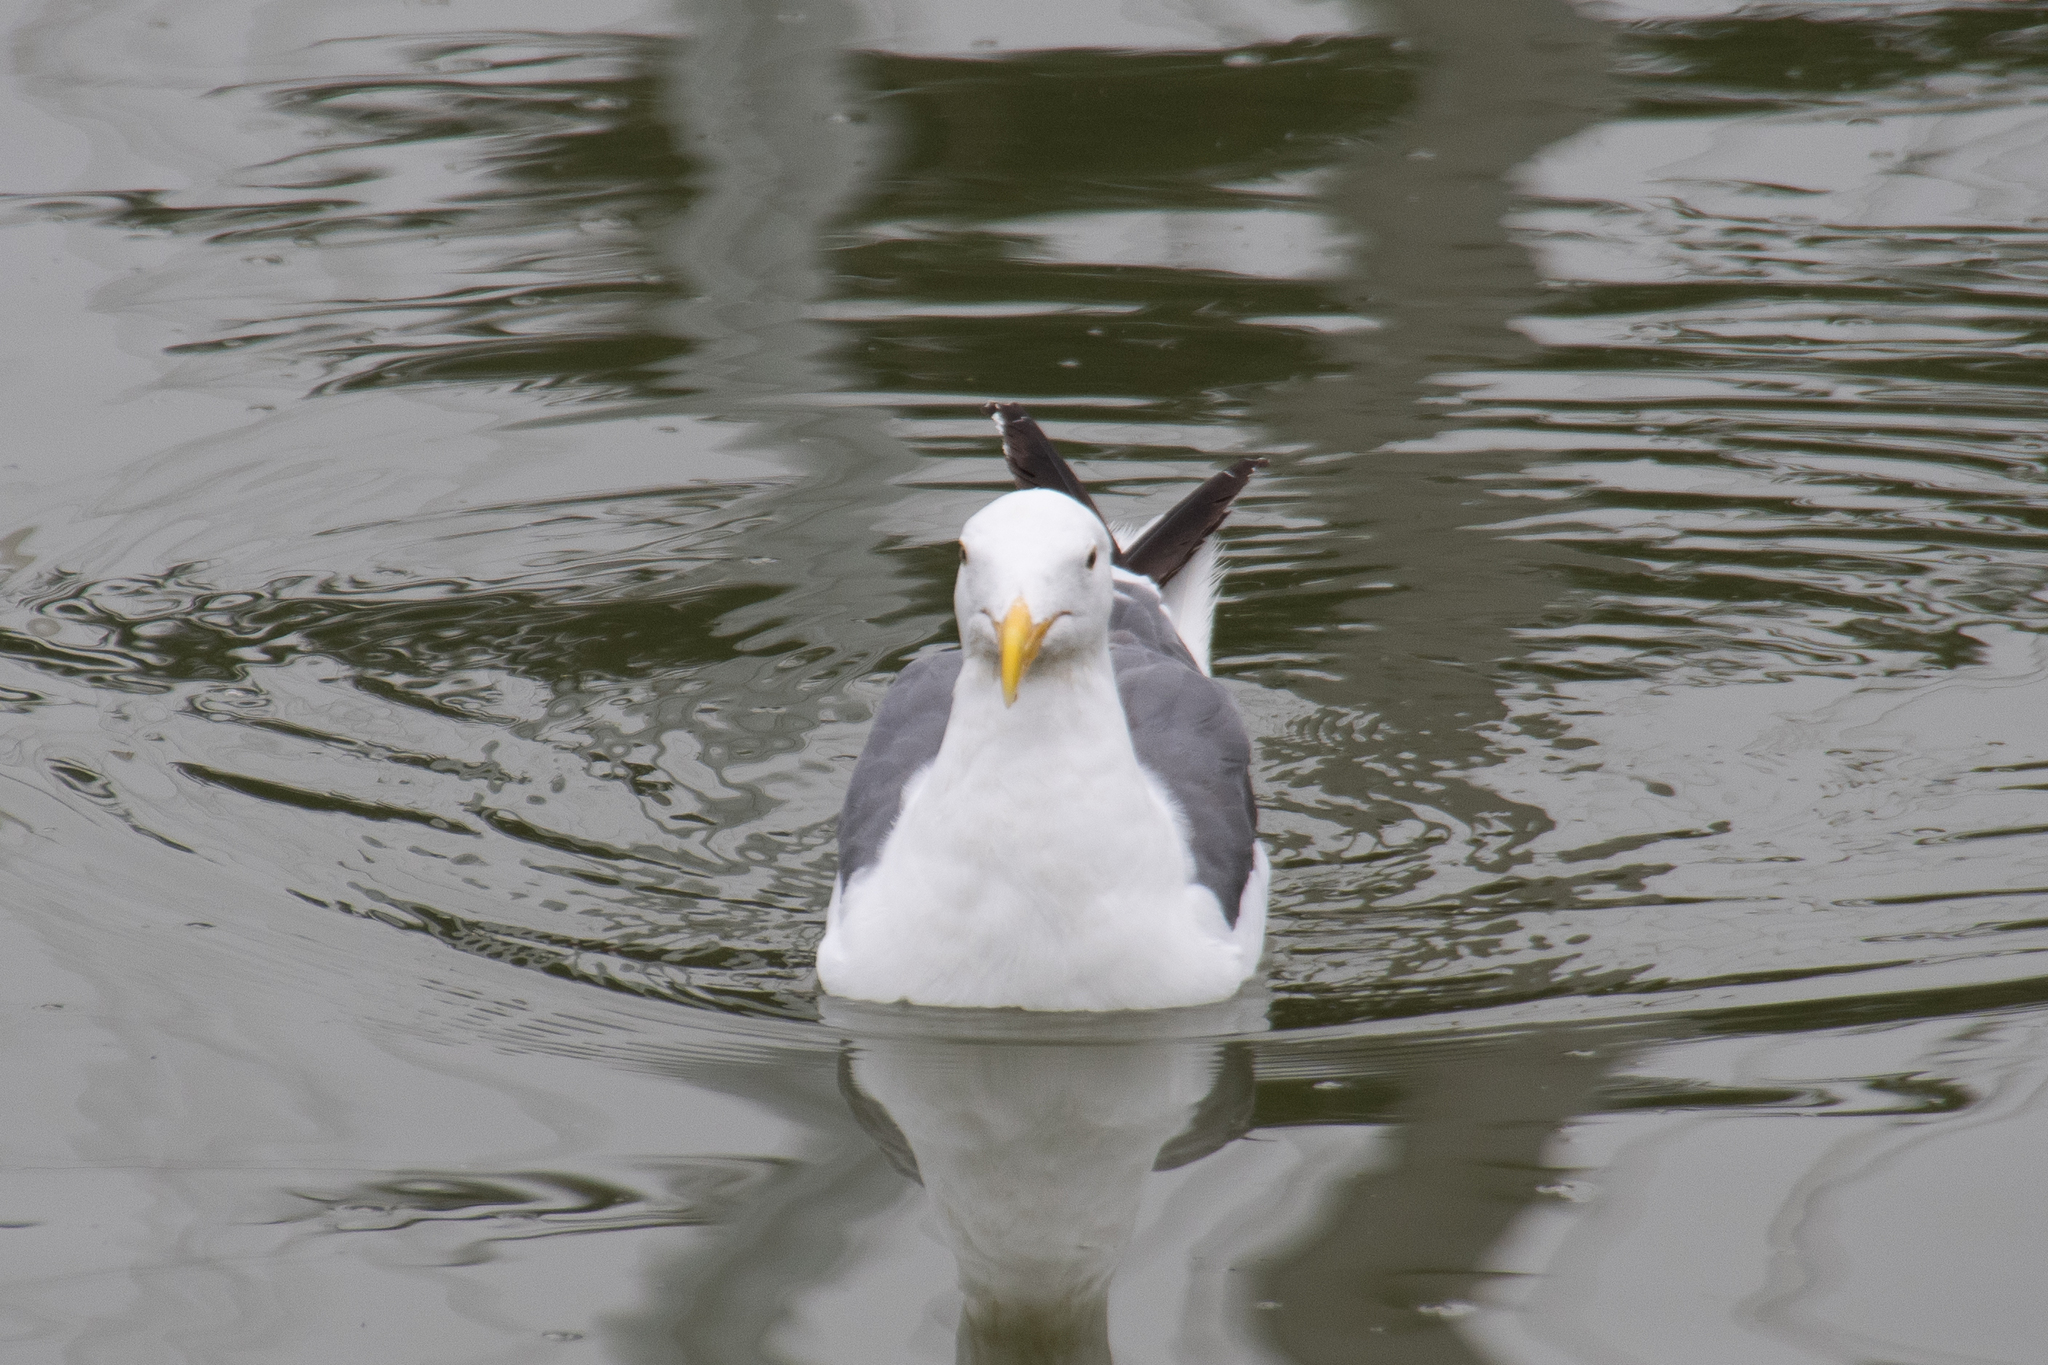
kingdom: Animalia
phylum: Chordata
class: Aves
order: Charadriiformes
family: Laridae
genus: Larus
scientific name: Larus occidentalis
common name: Western gull
